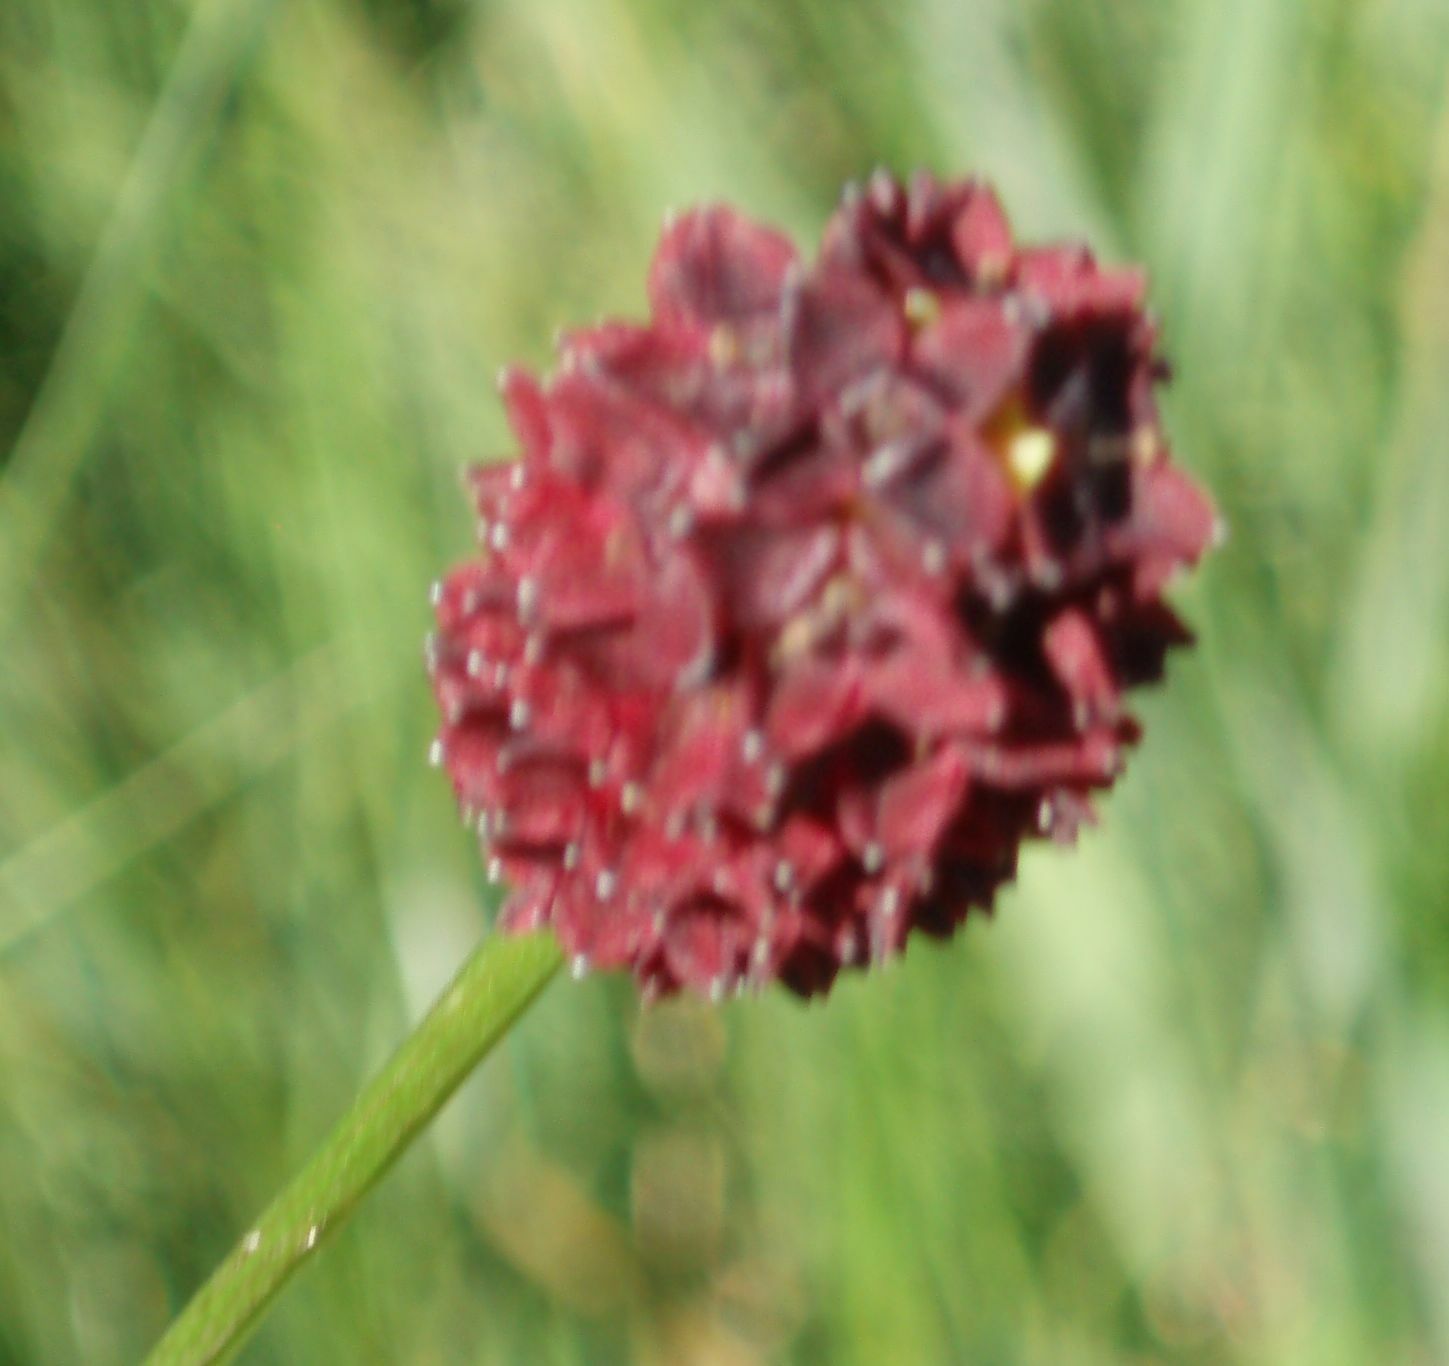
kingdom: Plantae
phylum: Tracheophyta
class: Magnoliopsida
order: Rosales
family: Rosaceae
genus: Sanguisorba
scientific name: Sanguisorba officinalis
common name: Great burnet
